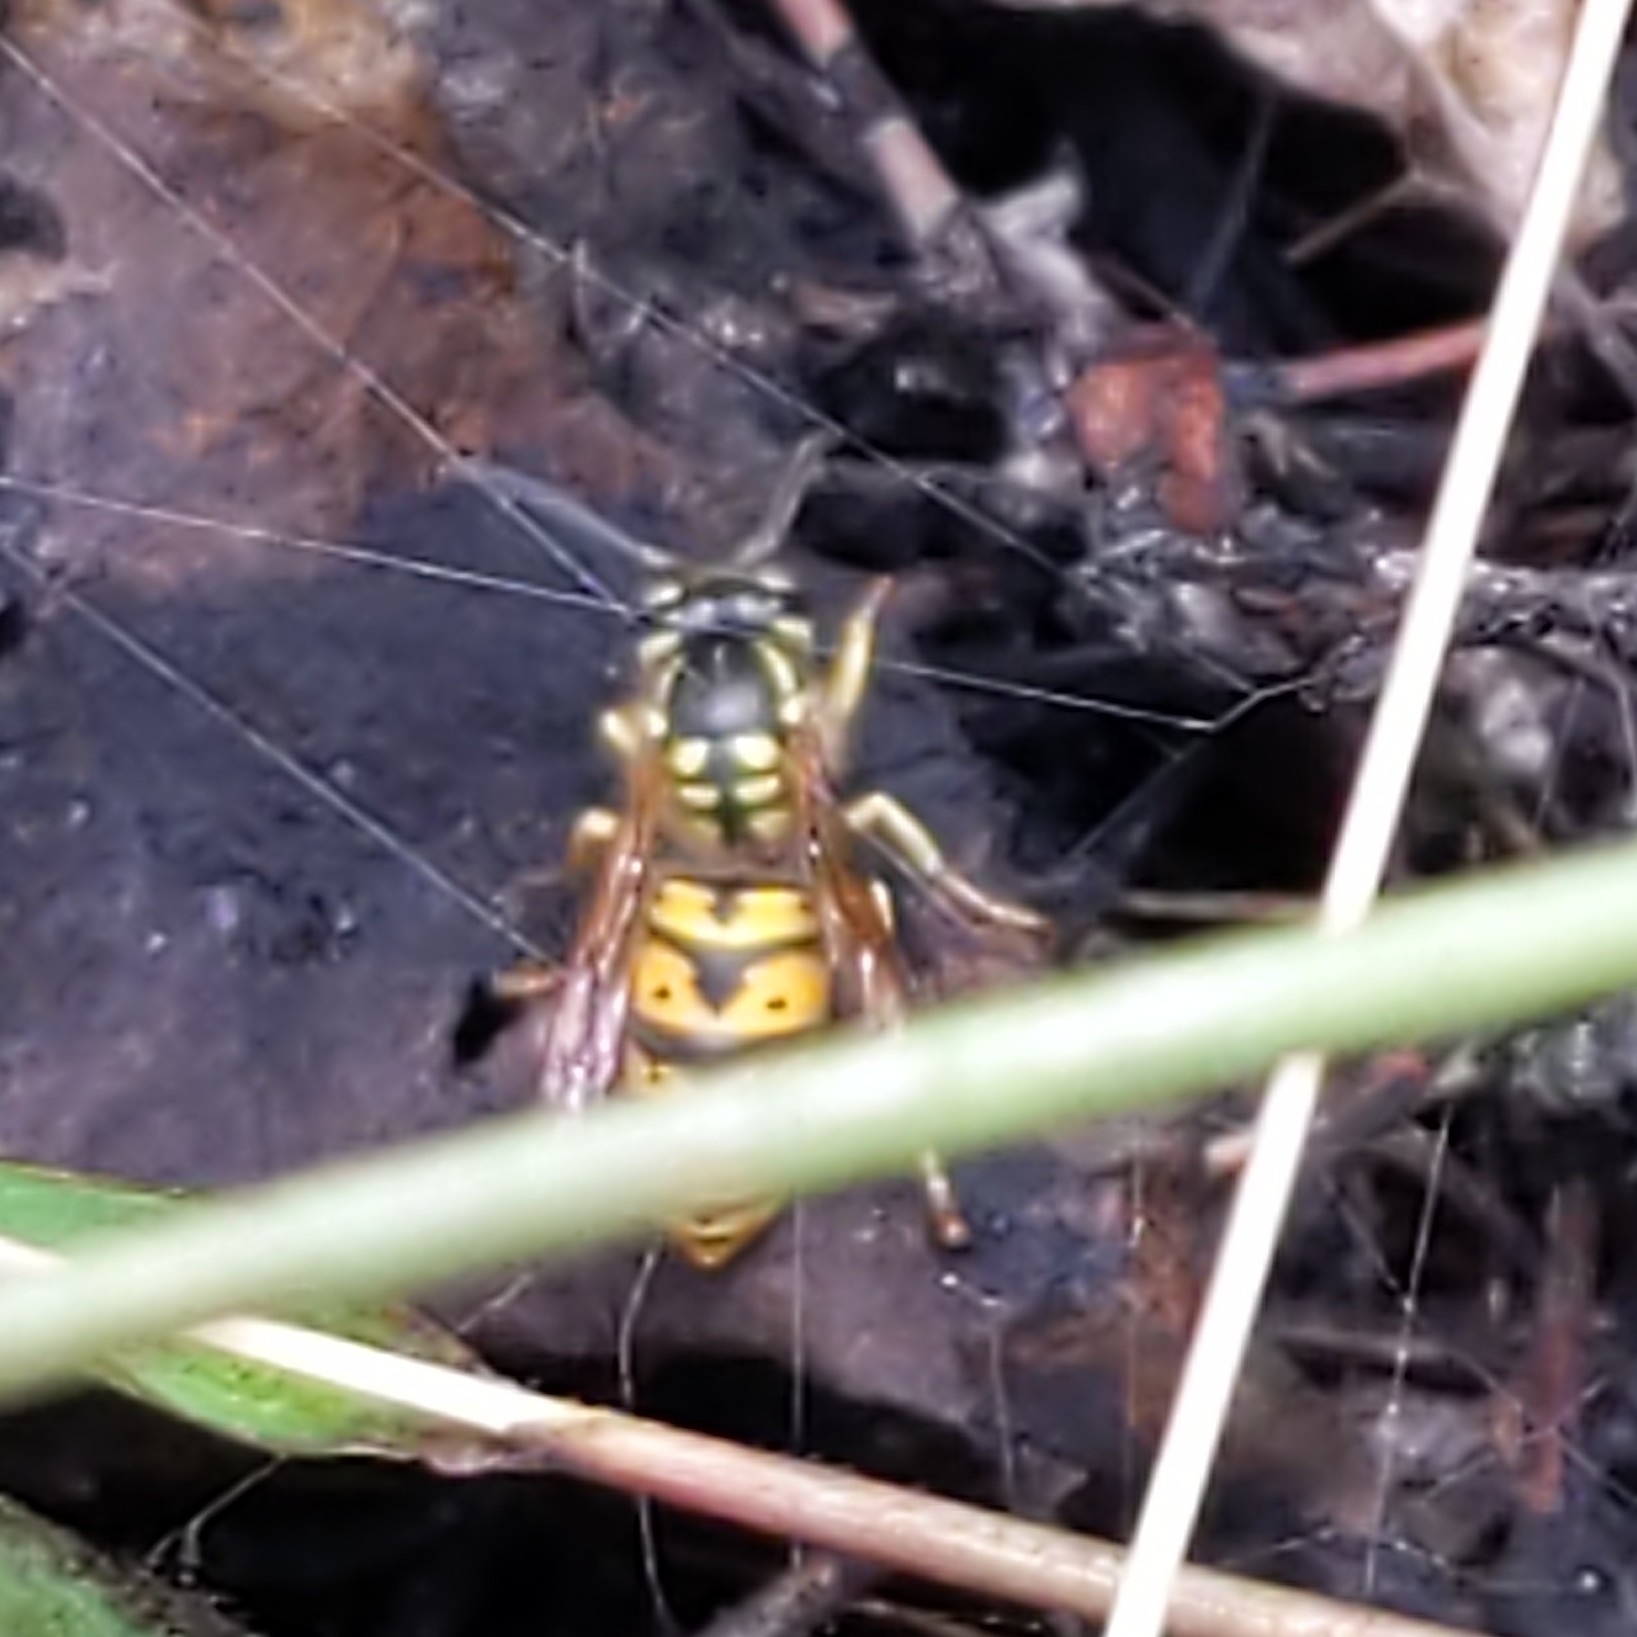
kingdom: Animalia
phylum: Arthropoda
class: Insecta
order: Hymenoptera
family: Vespidae
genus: Vespula
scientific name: Vespula germanica
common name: German wasp
